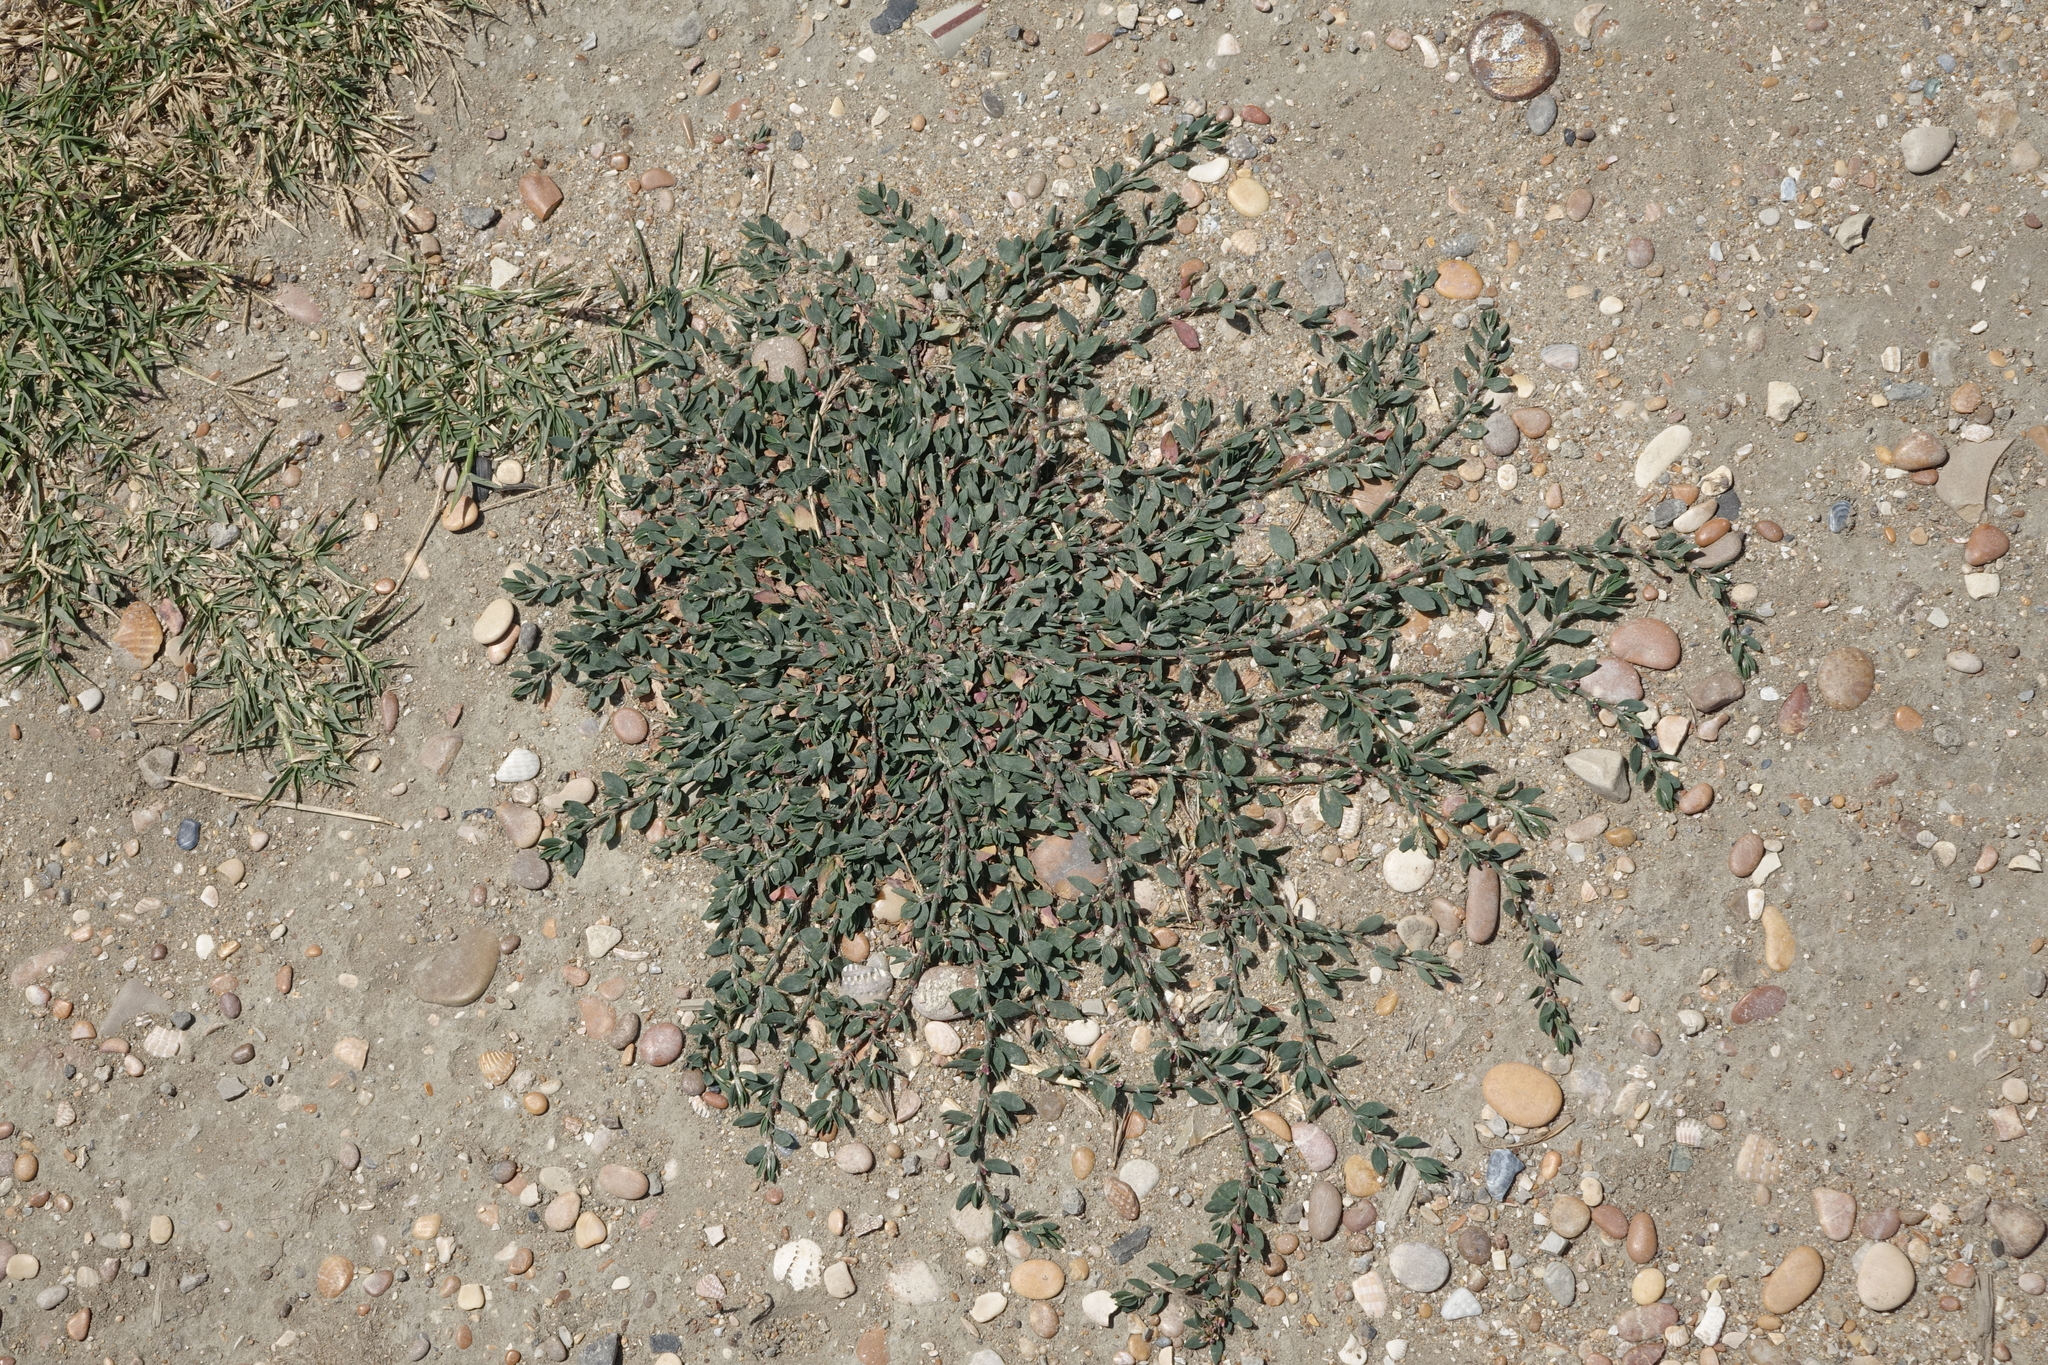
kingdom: Plantae
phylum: Tracheophyta
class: Magnoliopsida
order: Caryophyllales
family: Polygonaceae
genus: Polygonum
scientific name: Polygonum
